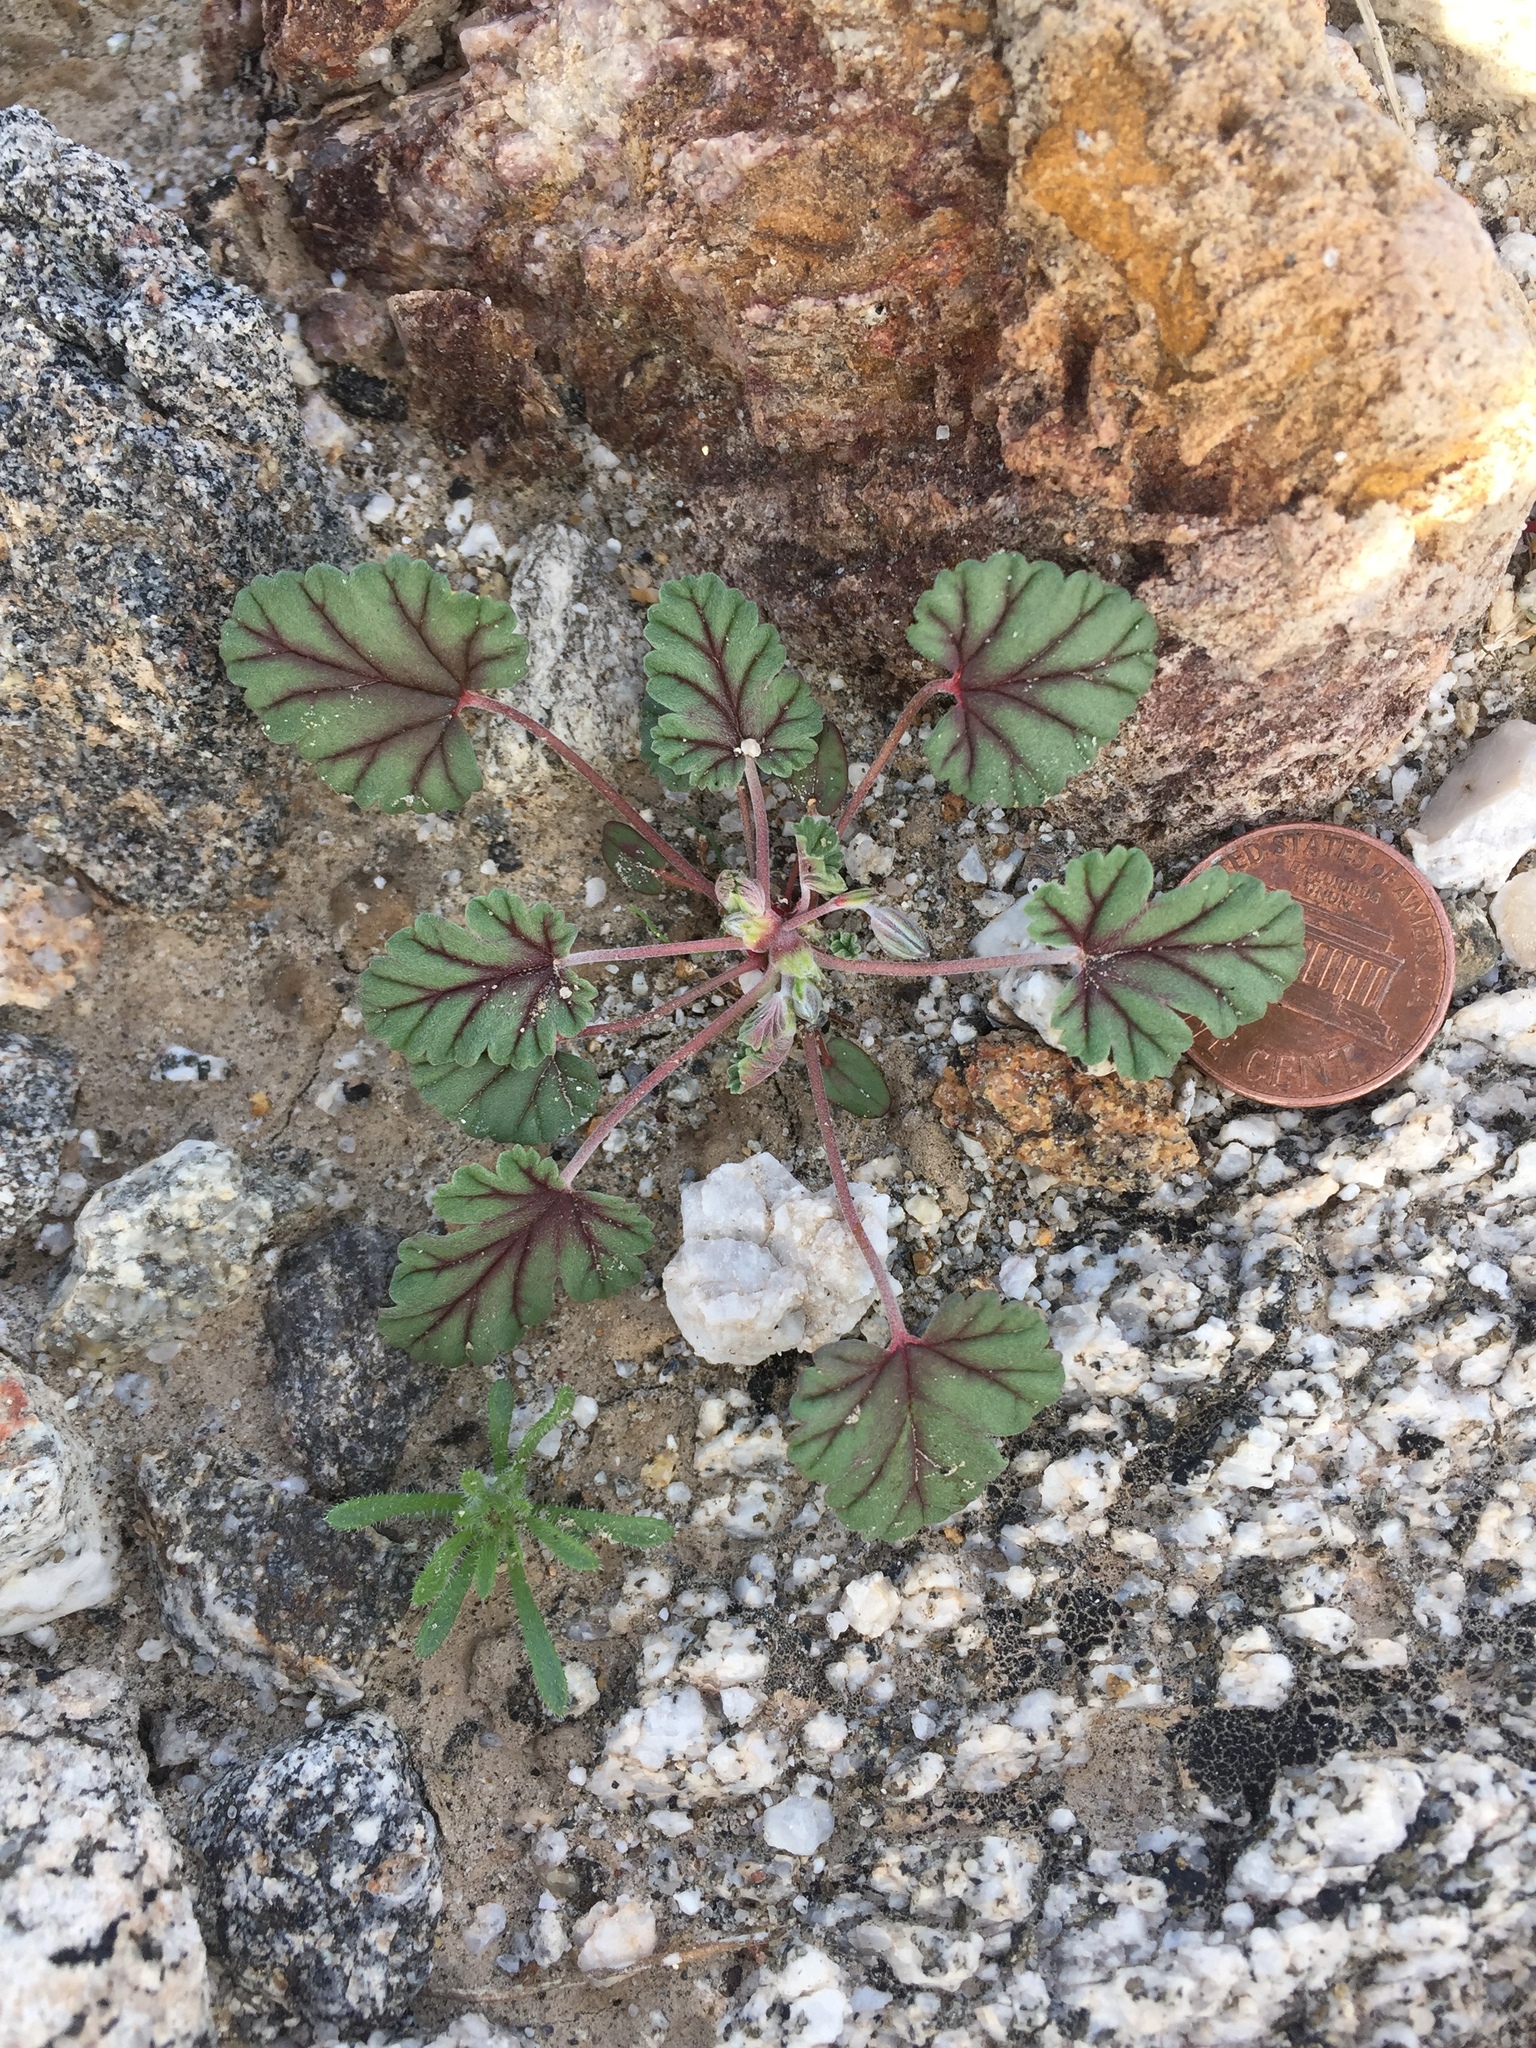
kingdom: Plantae
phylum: Tracheophyta
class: Magnoliopsida
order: Geraniales
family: Geraniaceae
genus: Erodium
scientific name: Erodium texanum
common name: Texas stork's-bill
